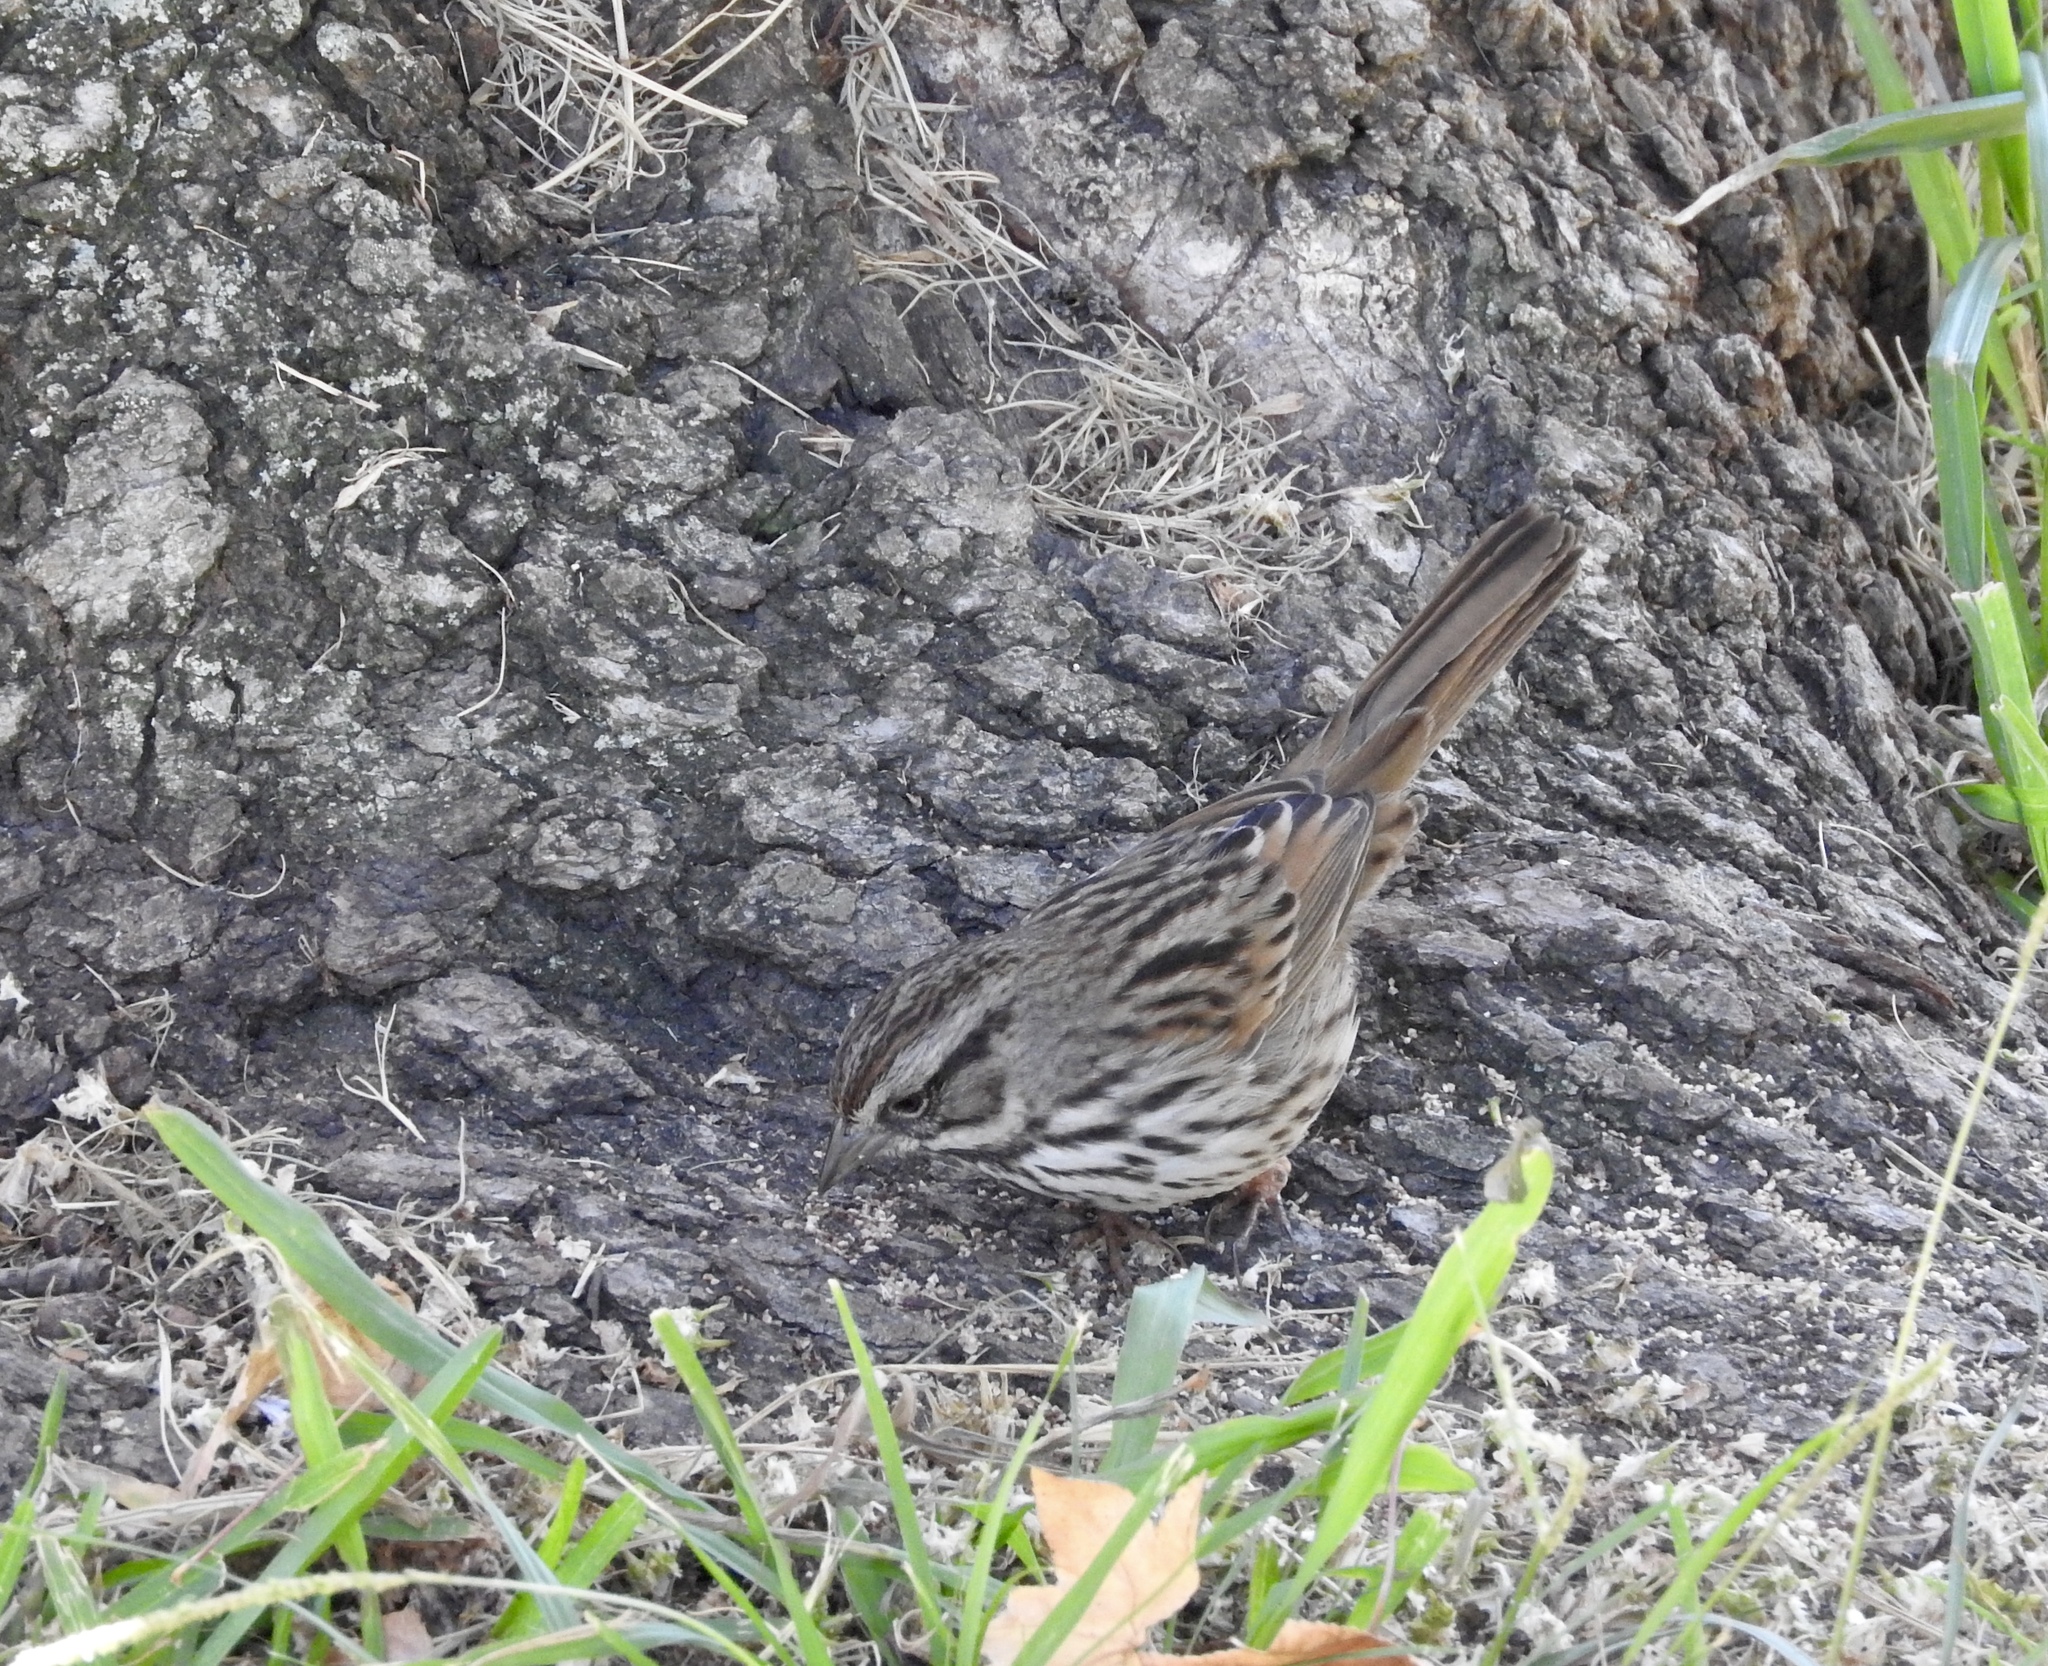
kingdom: Animalia
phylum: Chordata
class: Aves
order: Passeriformes
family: Passerellidae
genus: Melospiza
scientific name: Melospiza melodia
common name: Song sparrow
